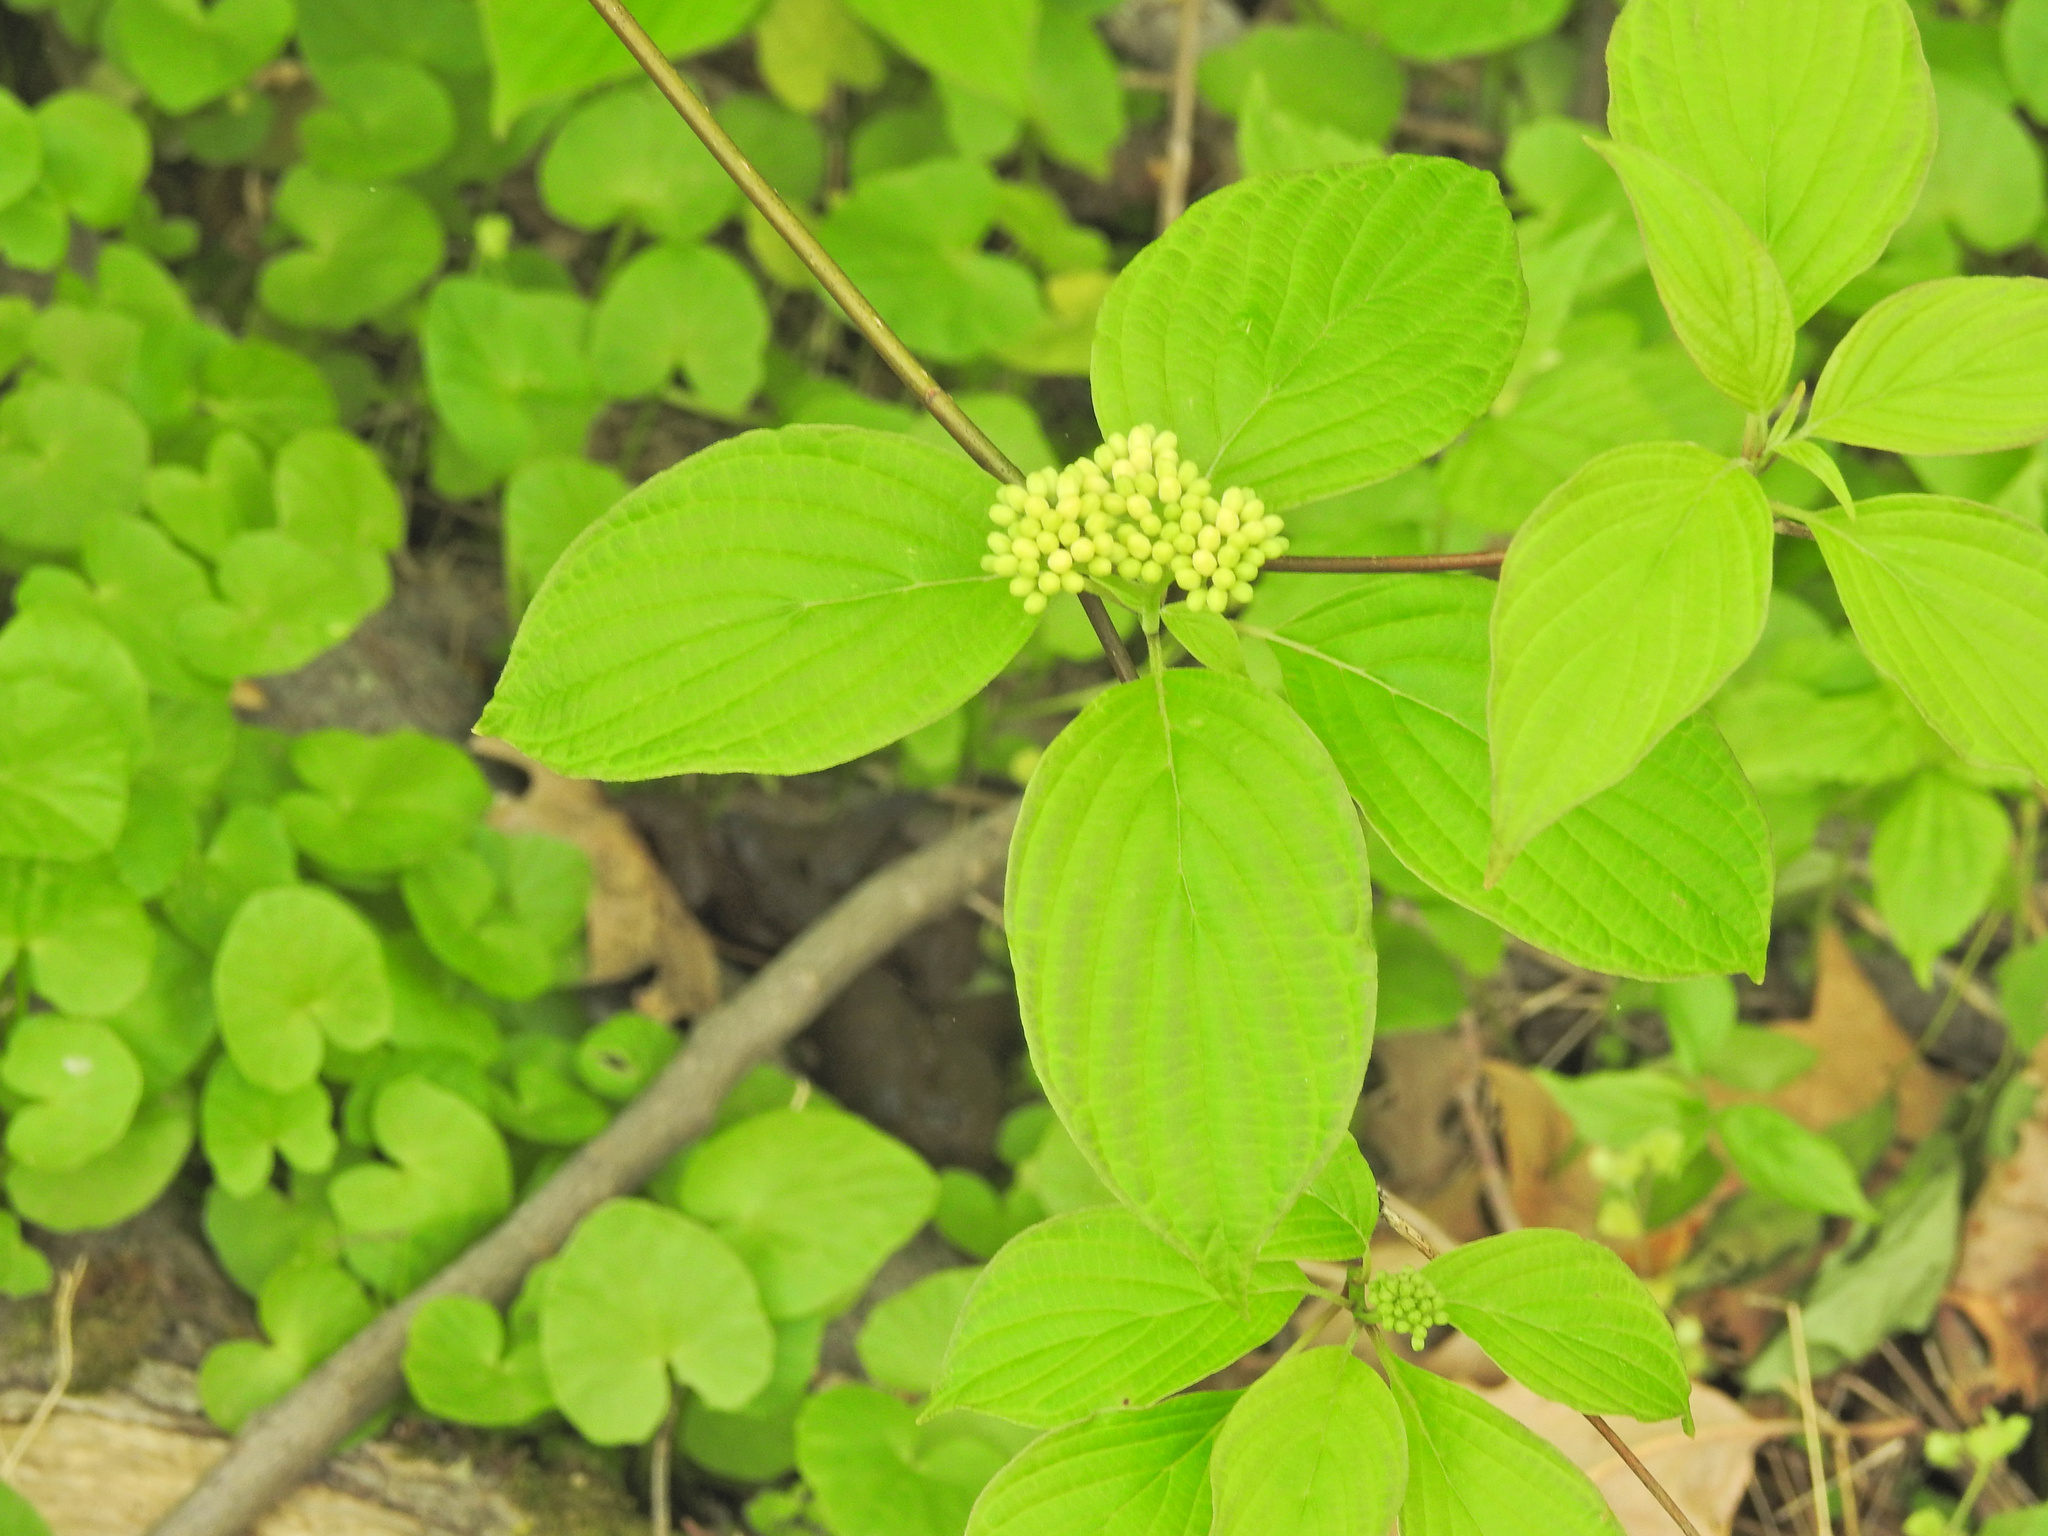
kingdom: Plantae
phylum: Tracheophyta
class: Magnoliopsida
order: Cornales
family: Cornaceae
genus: Cornus
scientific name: Cornus alternifolia
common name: Pagoda dogwood
